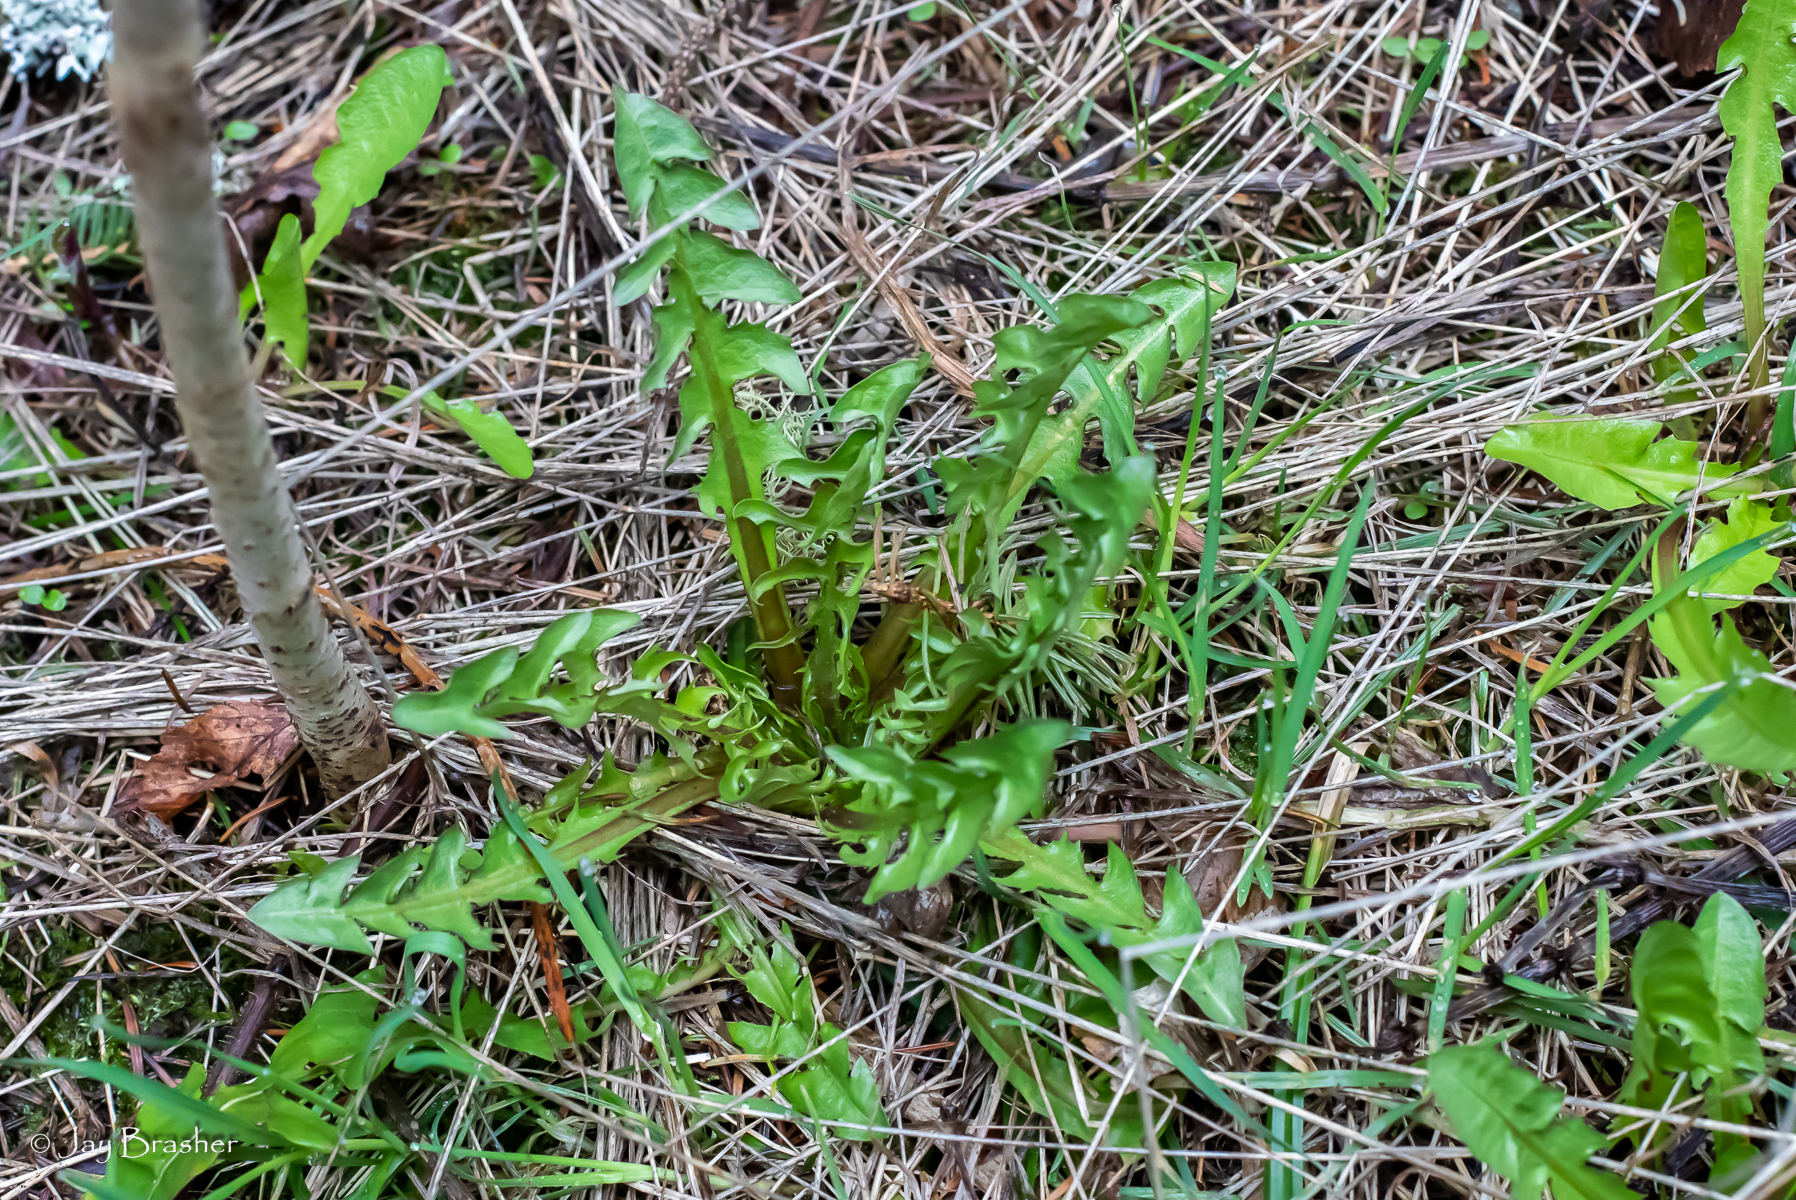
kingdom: Plantae
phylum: Tracheophyta
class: Magnoliopsida
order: Asterales
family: Asteraceae
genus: Taraxacum
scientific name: Taraxacum officinale
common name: Common dandelion
